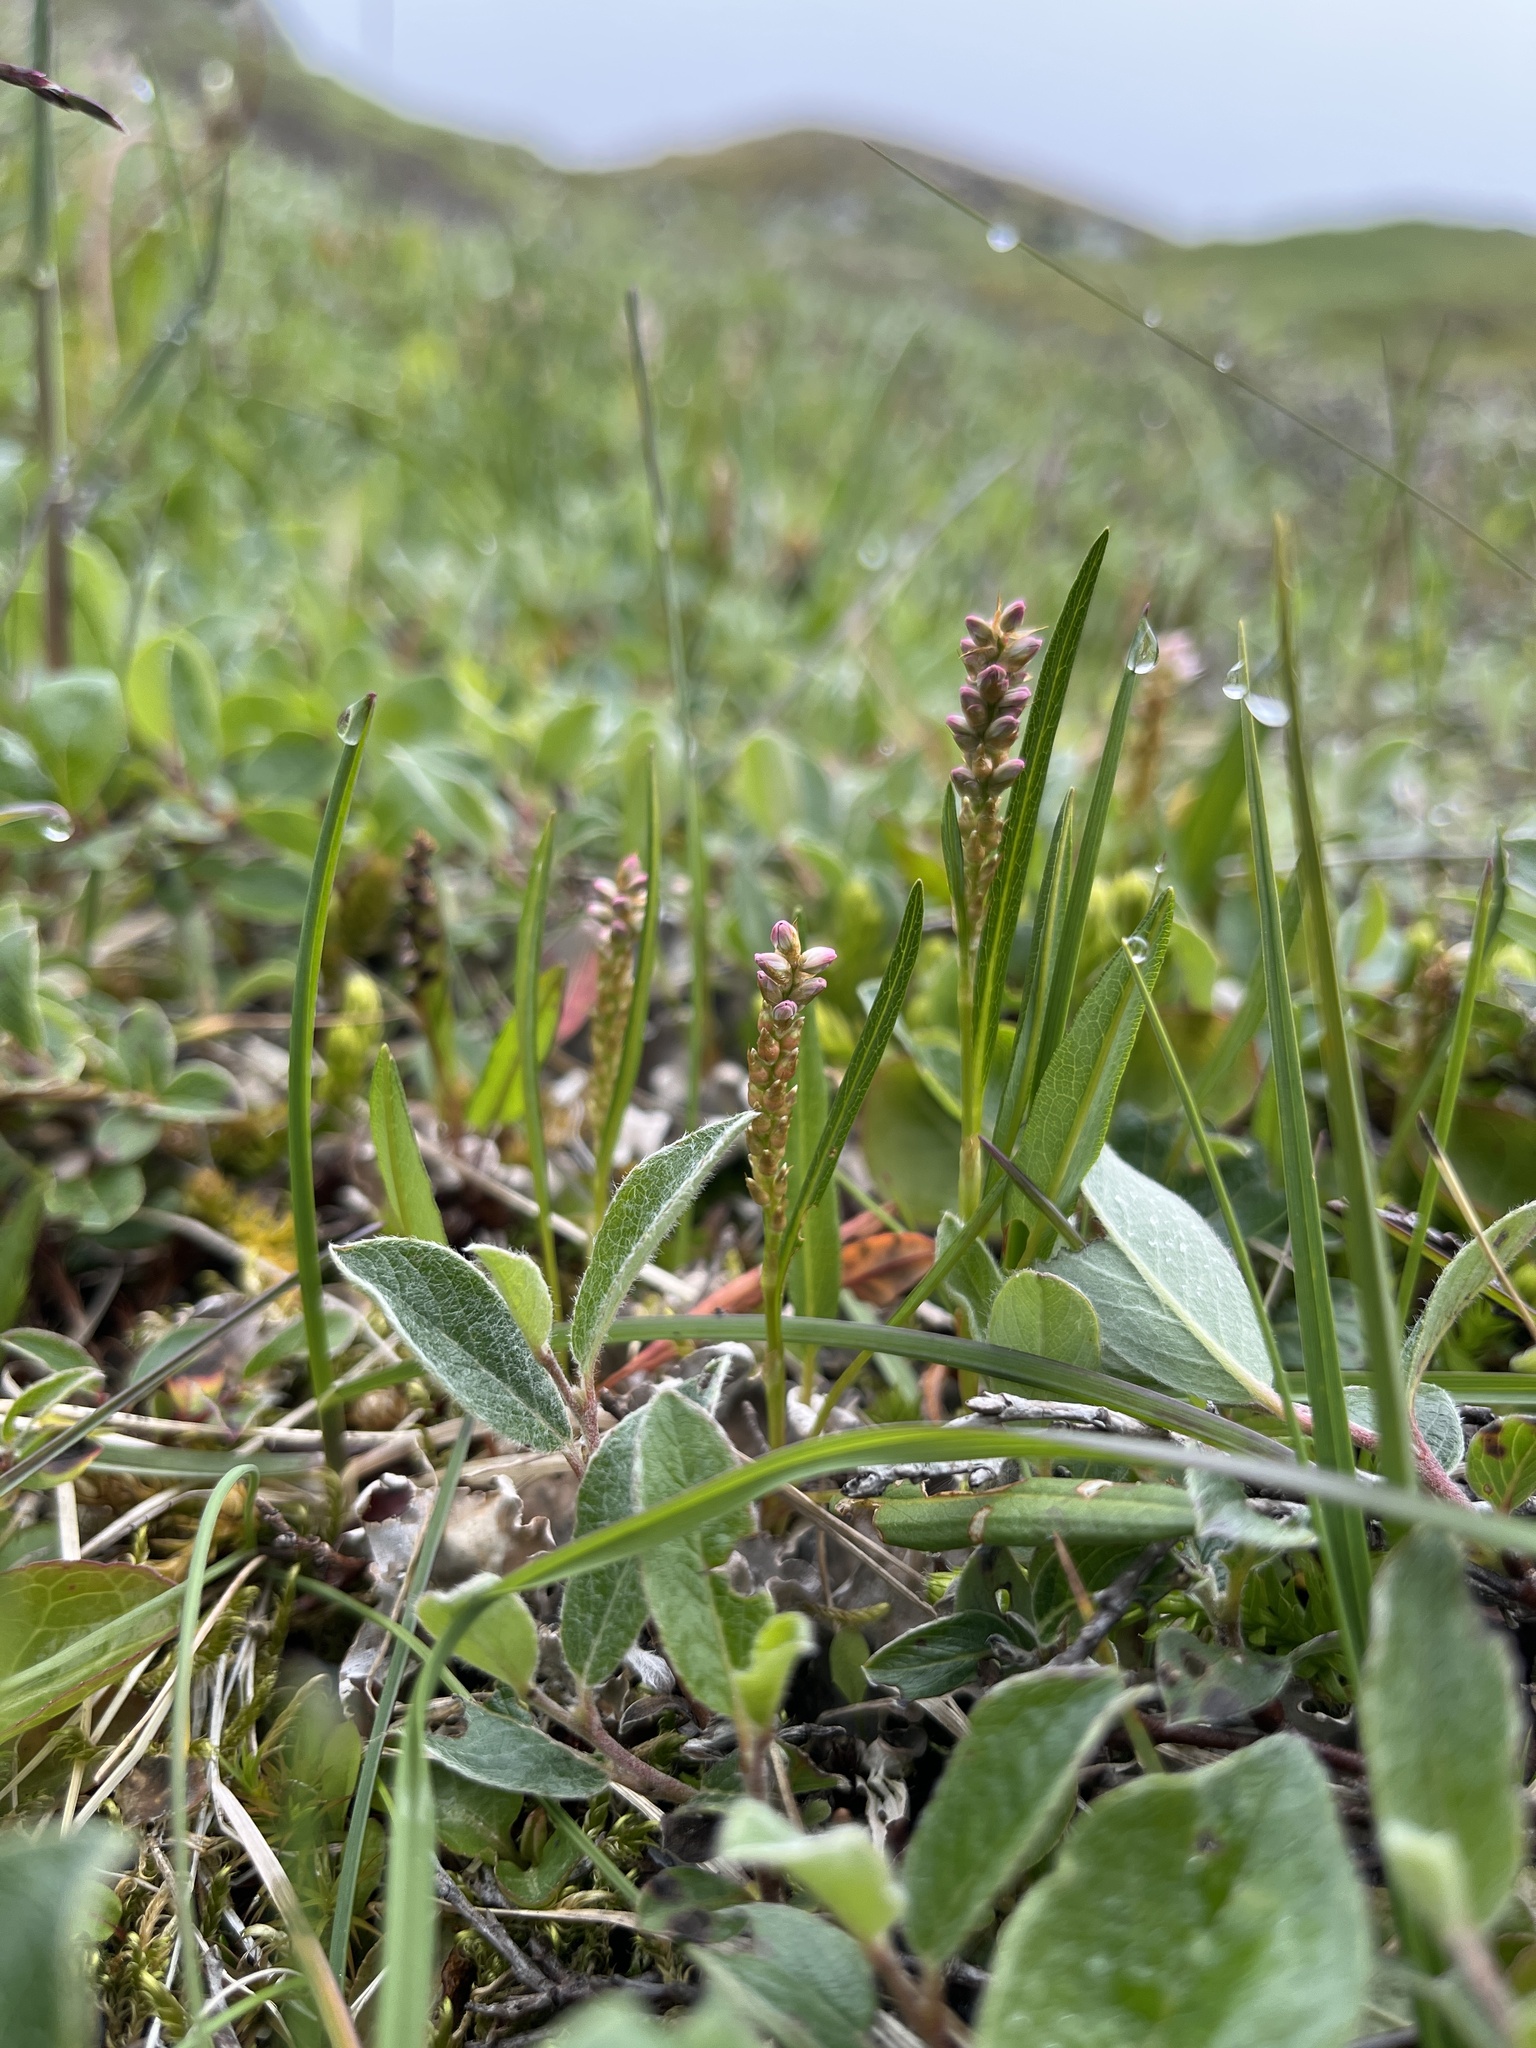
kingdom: Plantae
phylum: Tracheophyta
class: Magnoliopsida
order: Caryophyllales
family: Polygonaceae
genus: Bistorta
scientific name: Bistorta vivipara
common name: Alpine bistort
